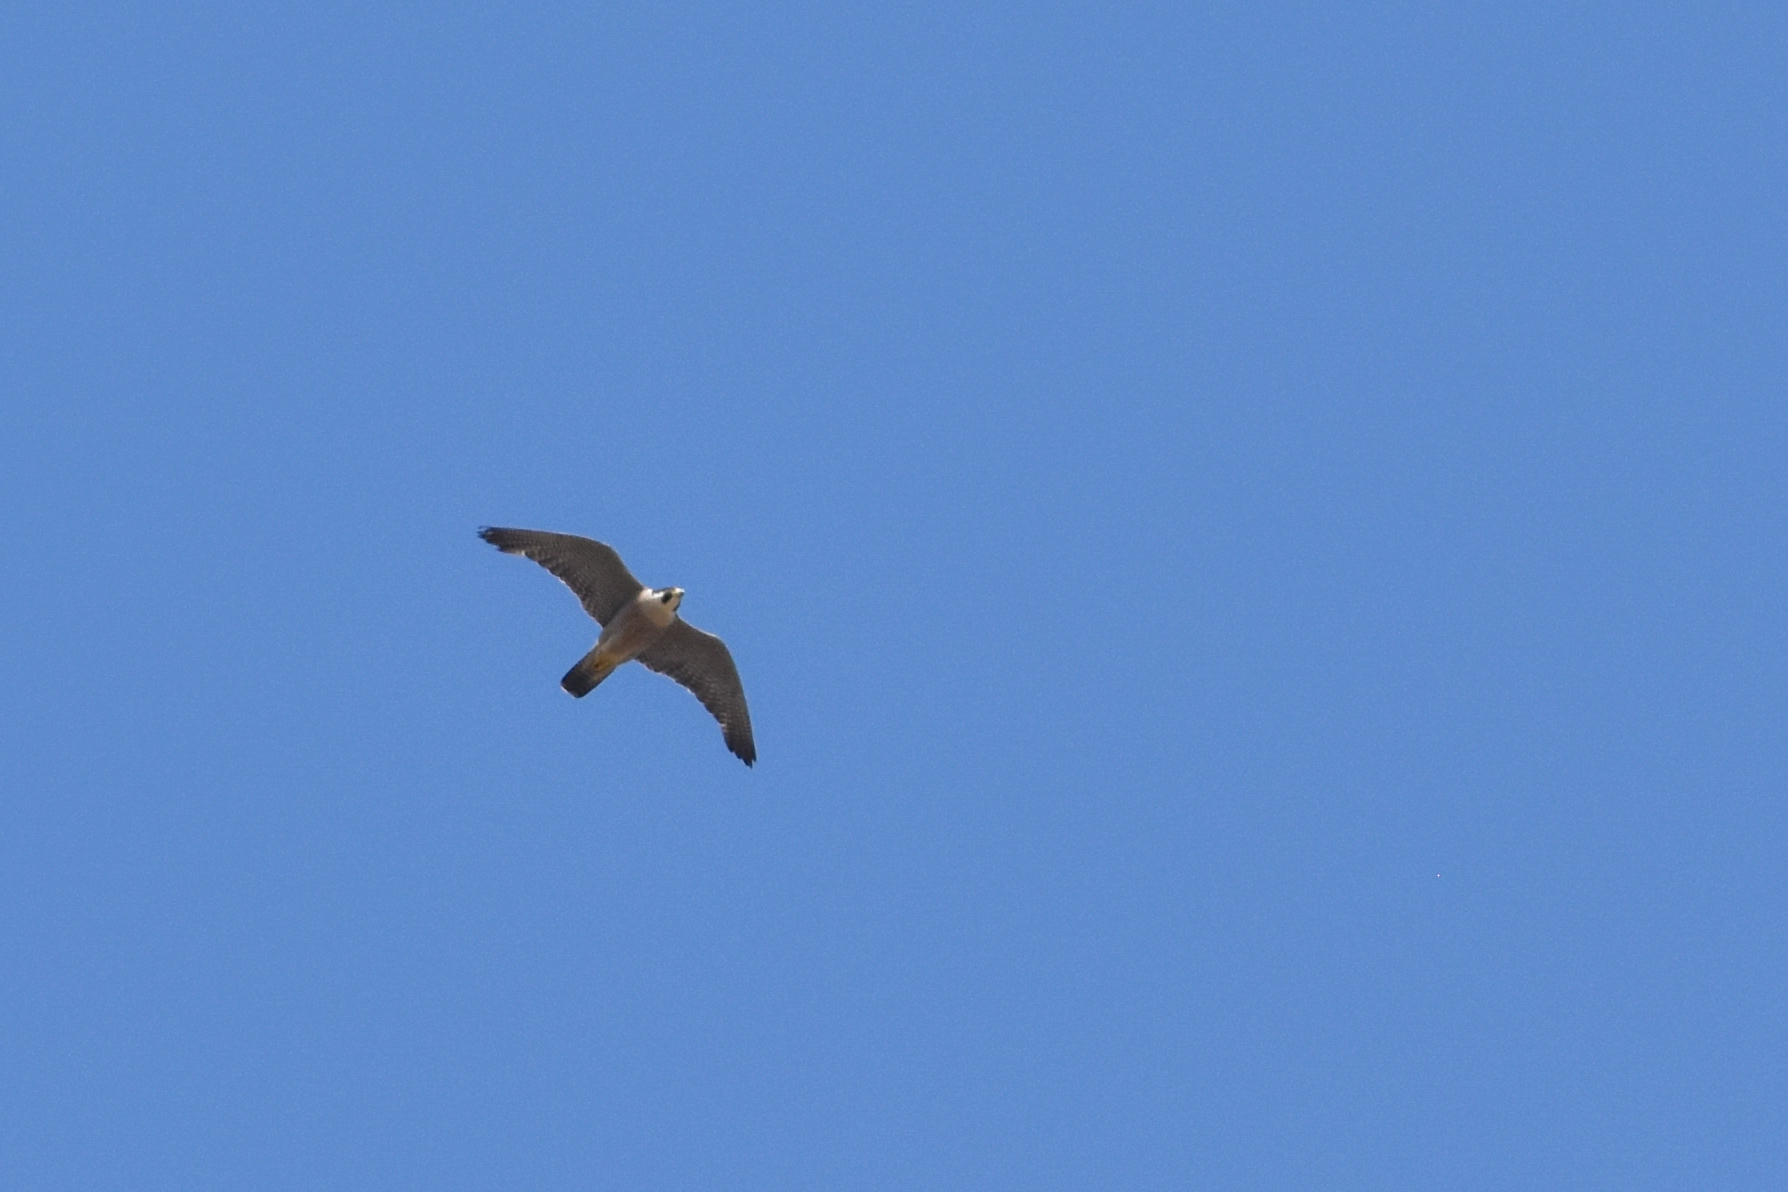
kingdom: Animalia
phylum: Chordata
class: Aves
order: Falconiformes
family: Falconidae
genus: Falco
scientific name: Falco peregrinus
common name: Peregrine falcon
